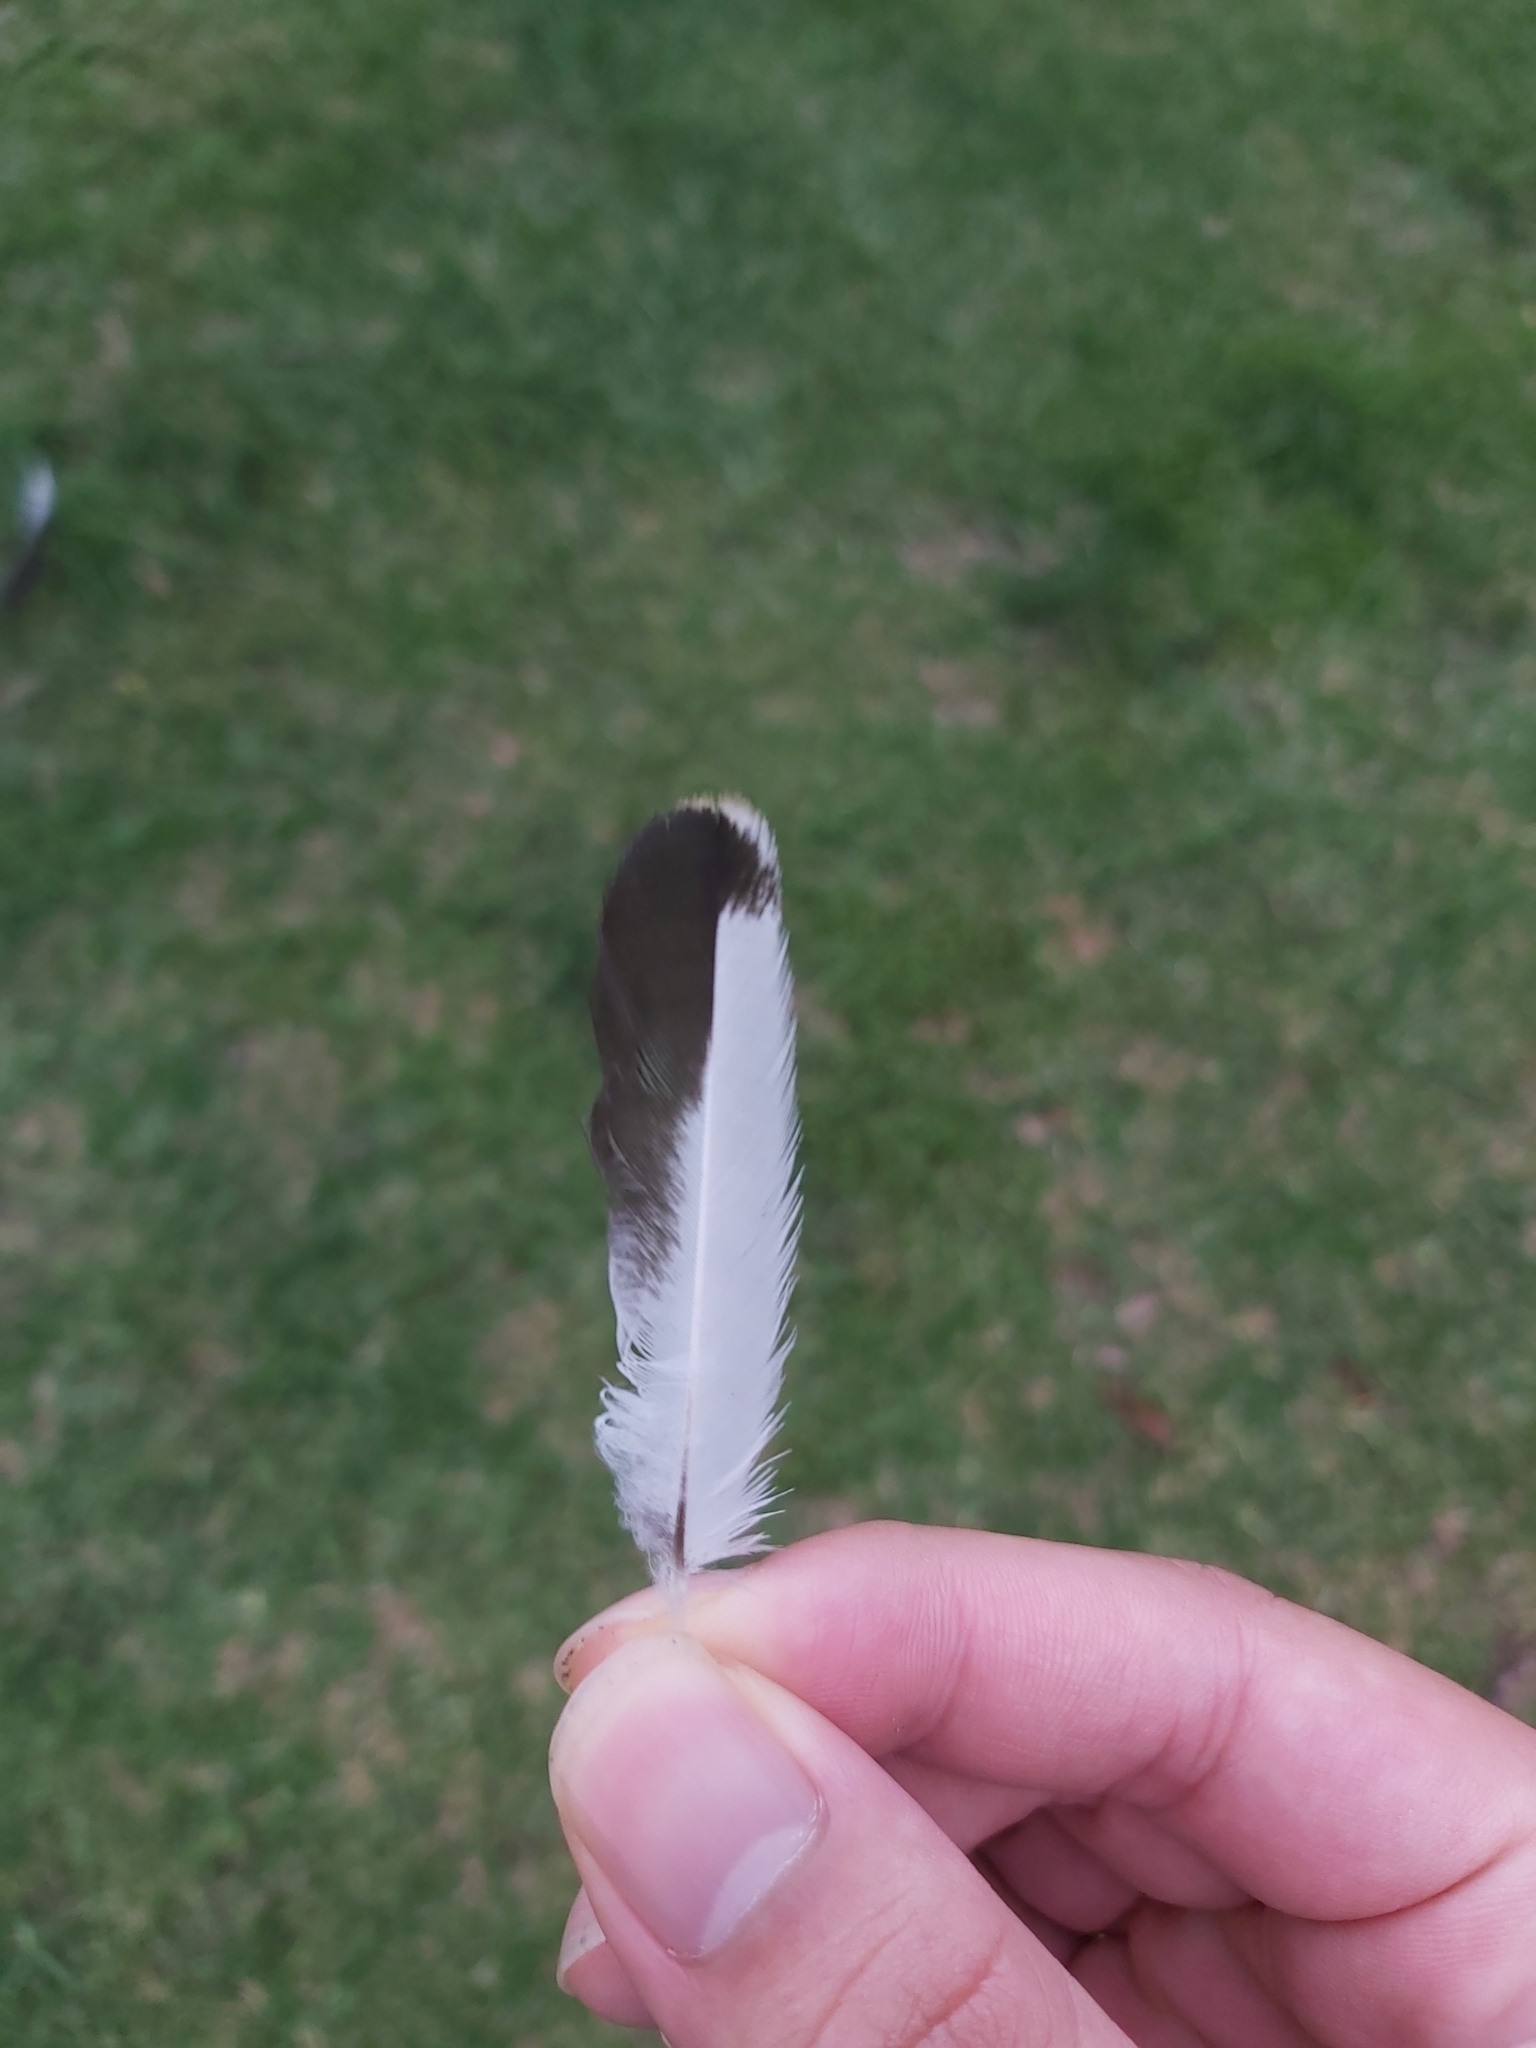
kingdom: Animalia
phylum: Chordata
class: Aves
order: Passeriformes
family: Cracticidae
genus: Gymnorhina
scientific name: Gymnorhina tibicen
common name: Australian magpie
